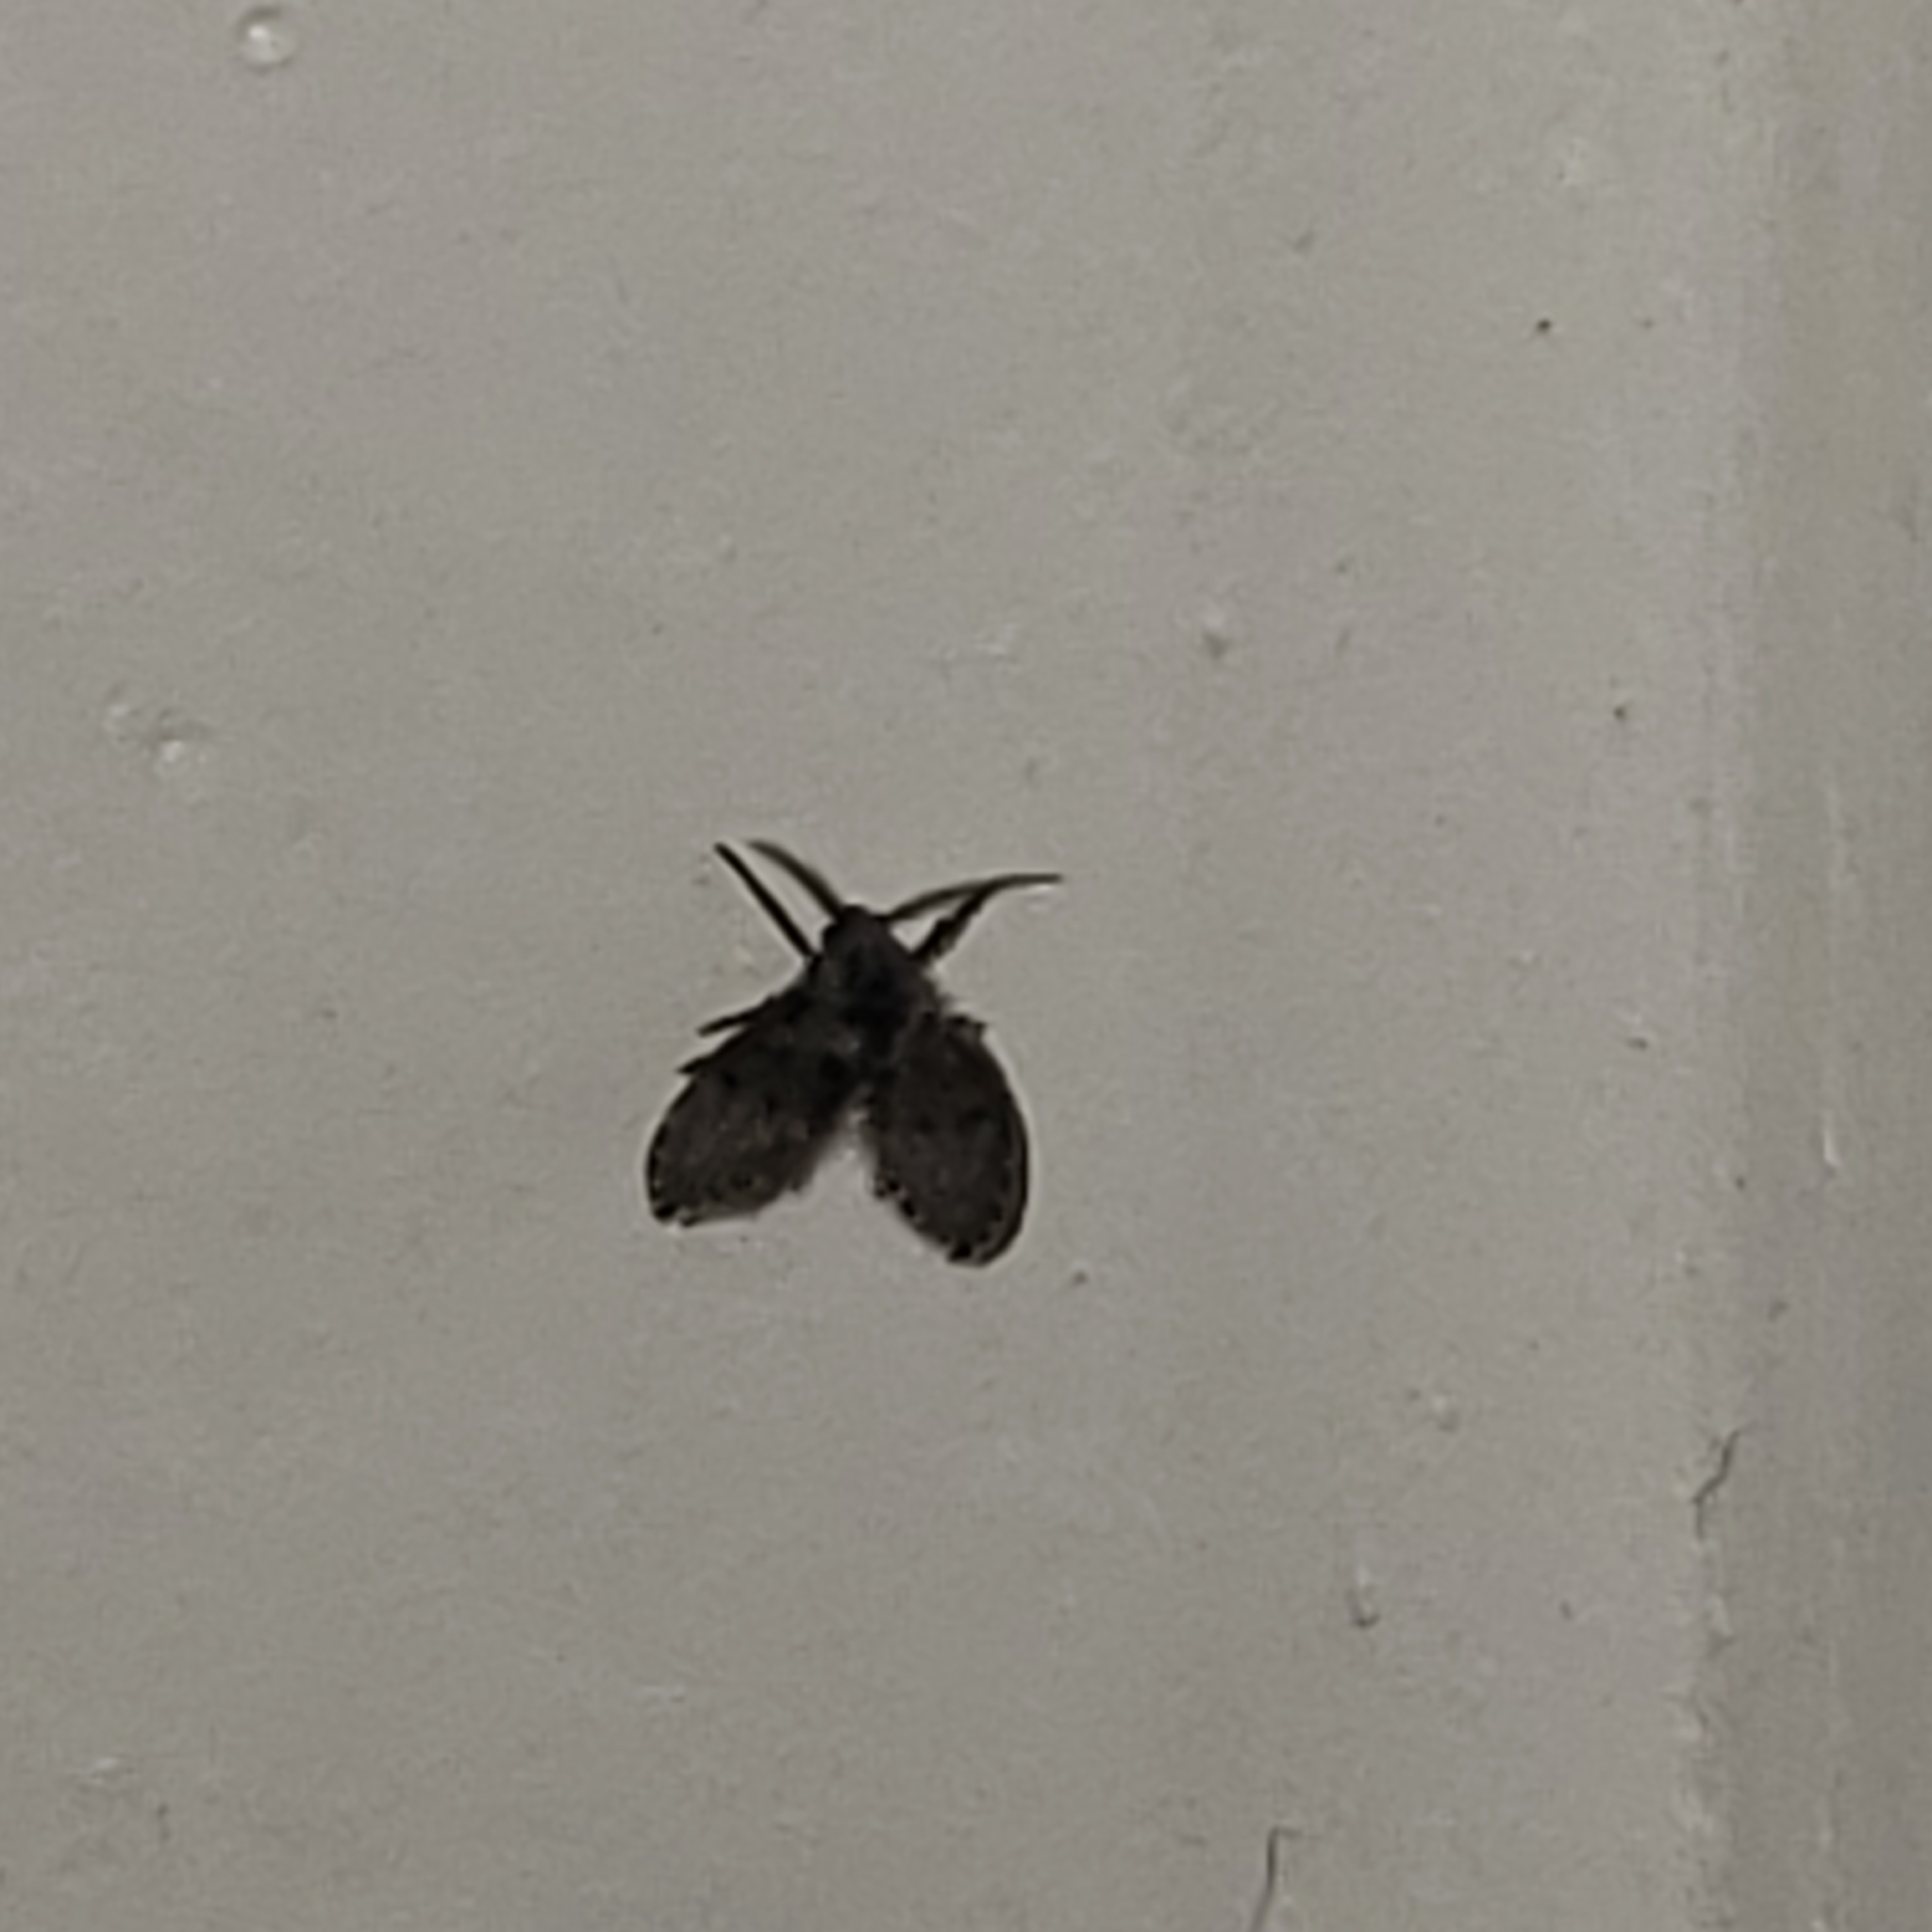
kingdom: Animalia
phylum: Arthropoda
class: Insecta
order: Diptera
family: Psychodidae
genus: Clogmia
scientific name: Clogmia albipunctatus
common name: White-spotted moth fly
